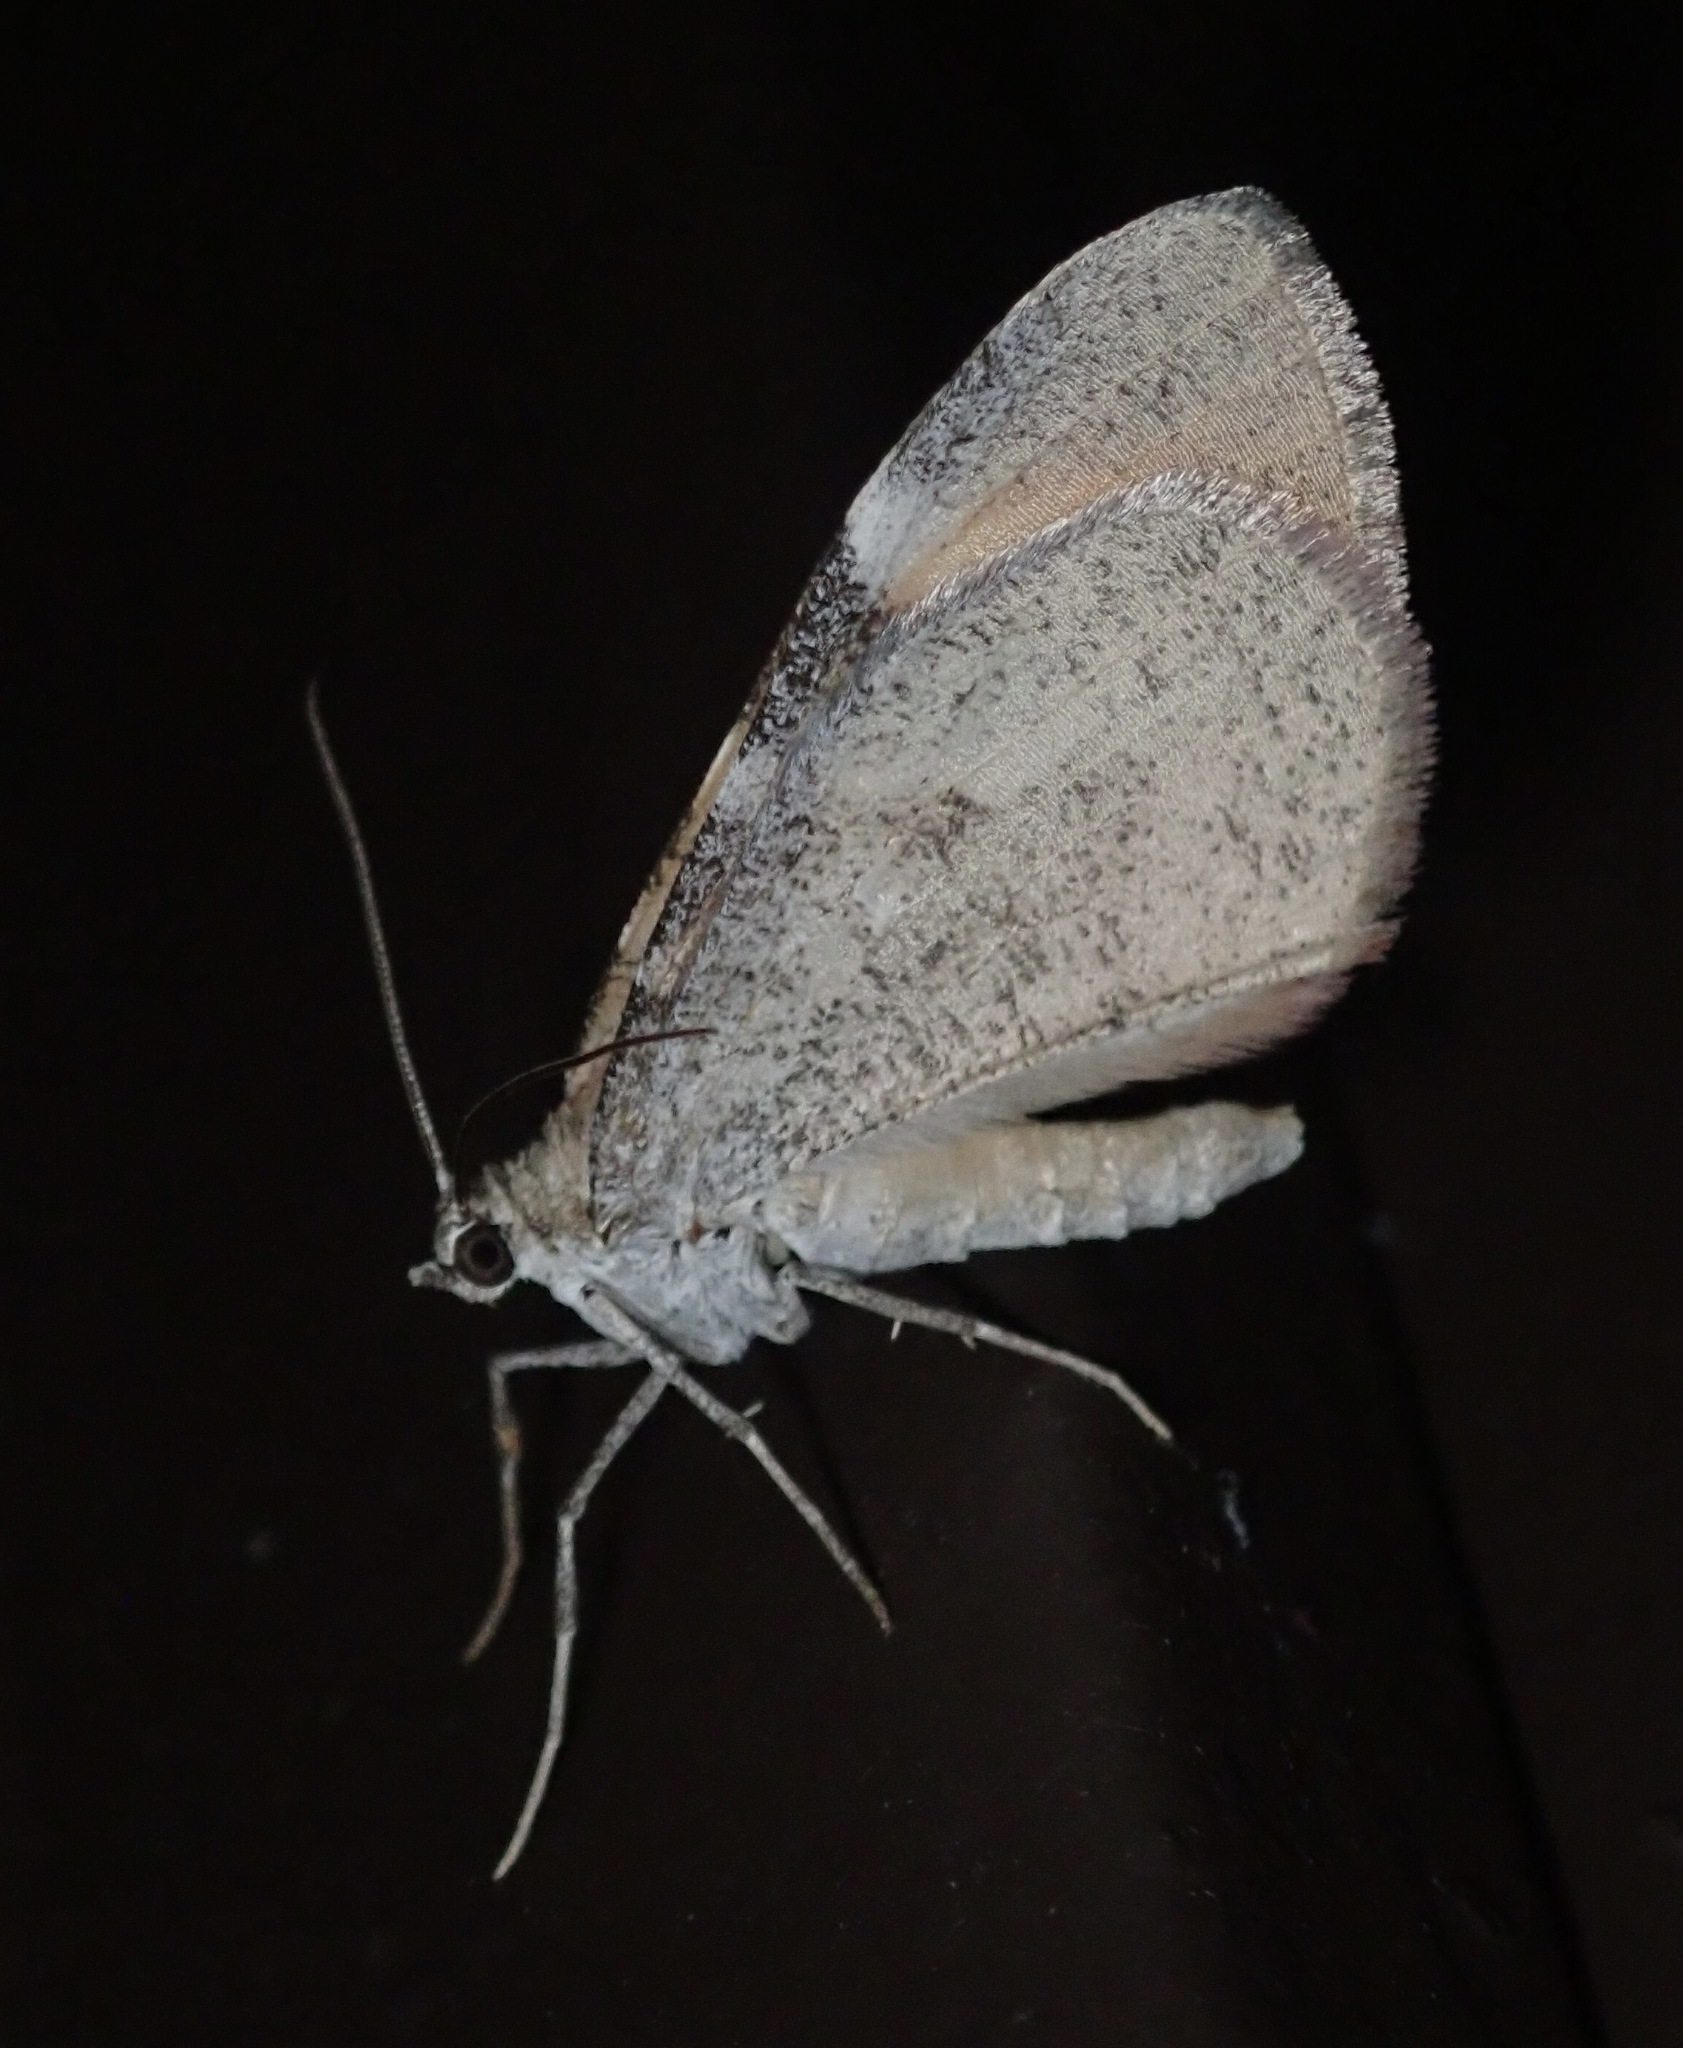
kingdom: Animalia
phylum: Arthropoda
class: Insecta
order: Lepidoptera
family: Geometridae
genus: Stamnodes
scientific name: Stamnodes seiferti
